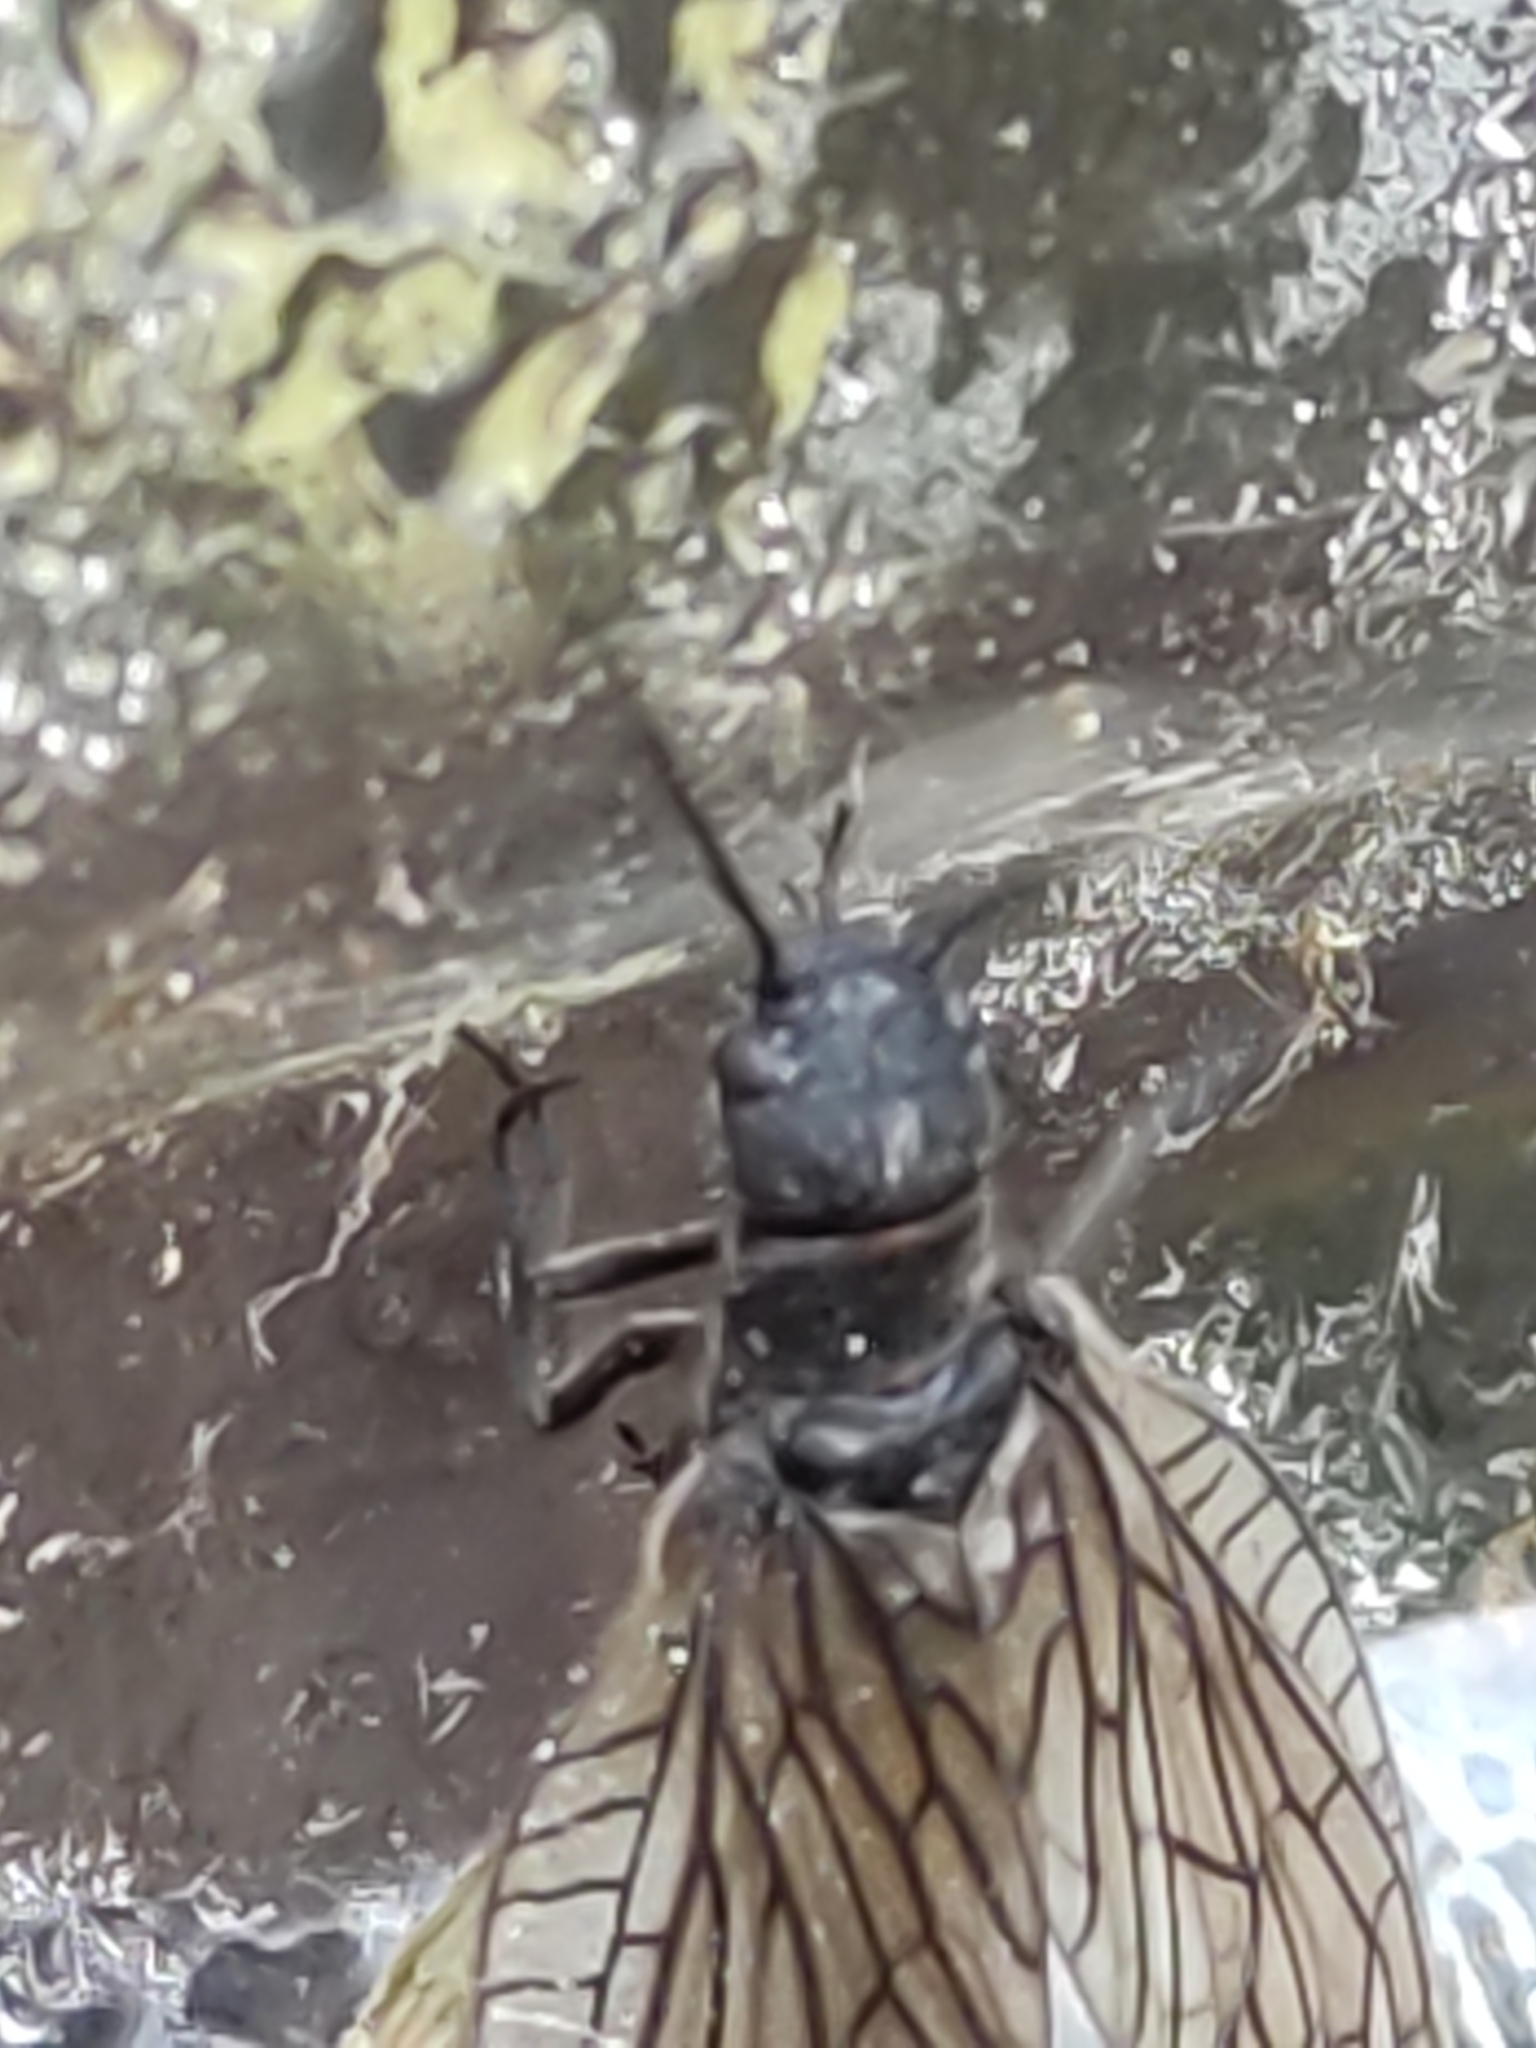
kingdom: Animalia
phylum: Arthropoda
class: Insecta
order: Megaloptera
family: Sialidae
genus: Sialis
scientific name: Sialis
